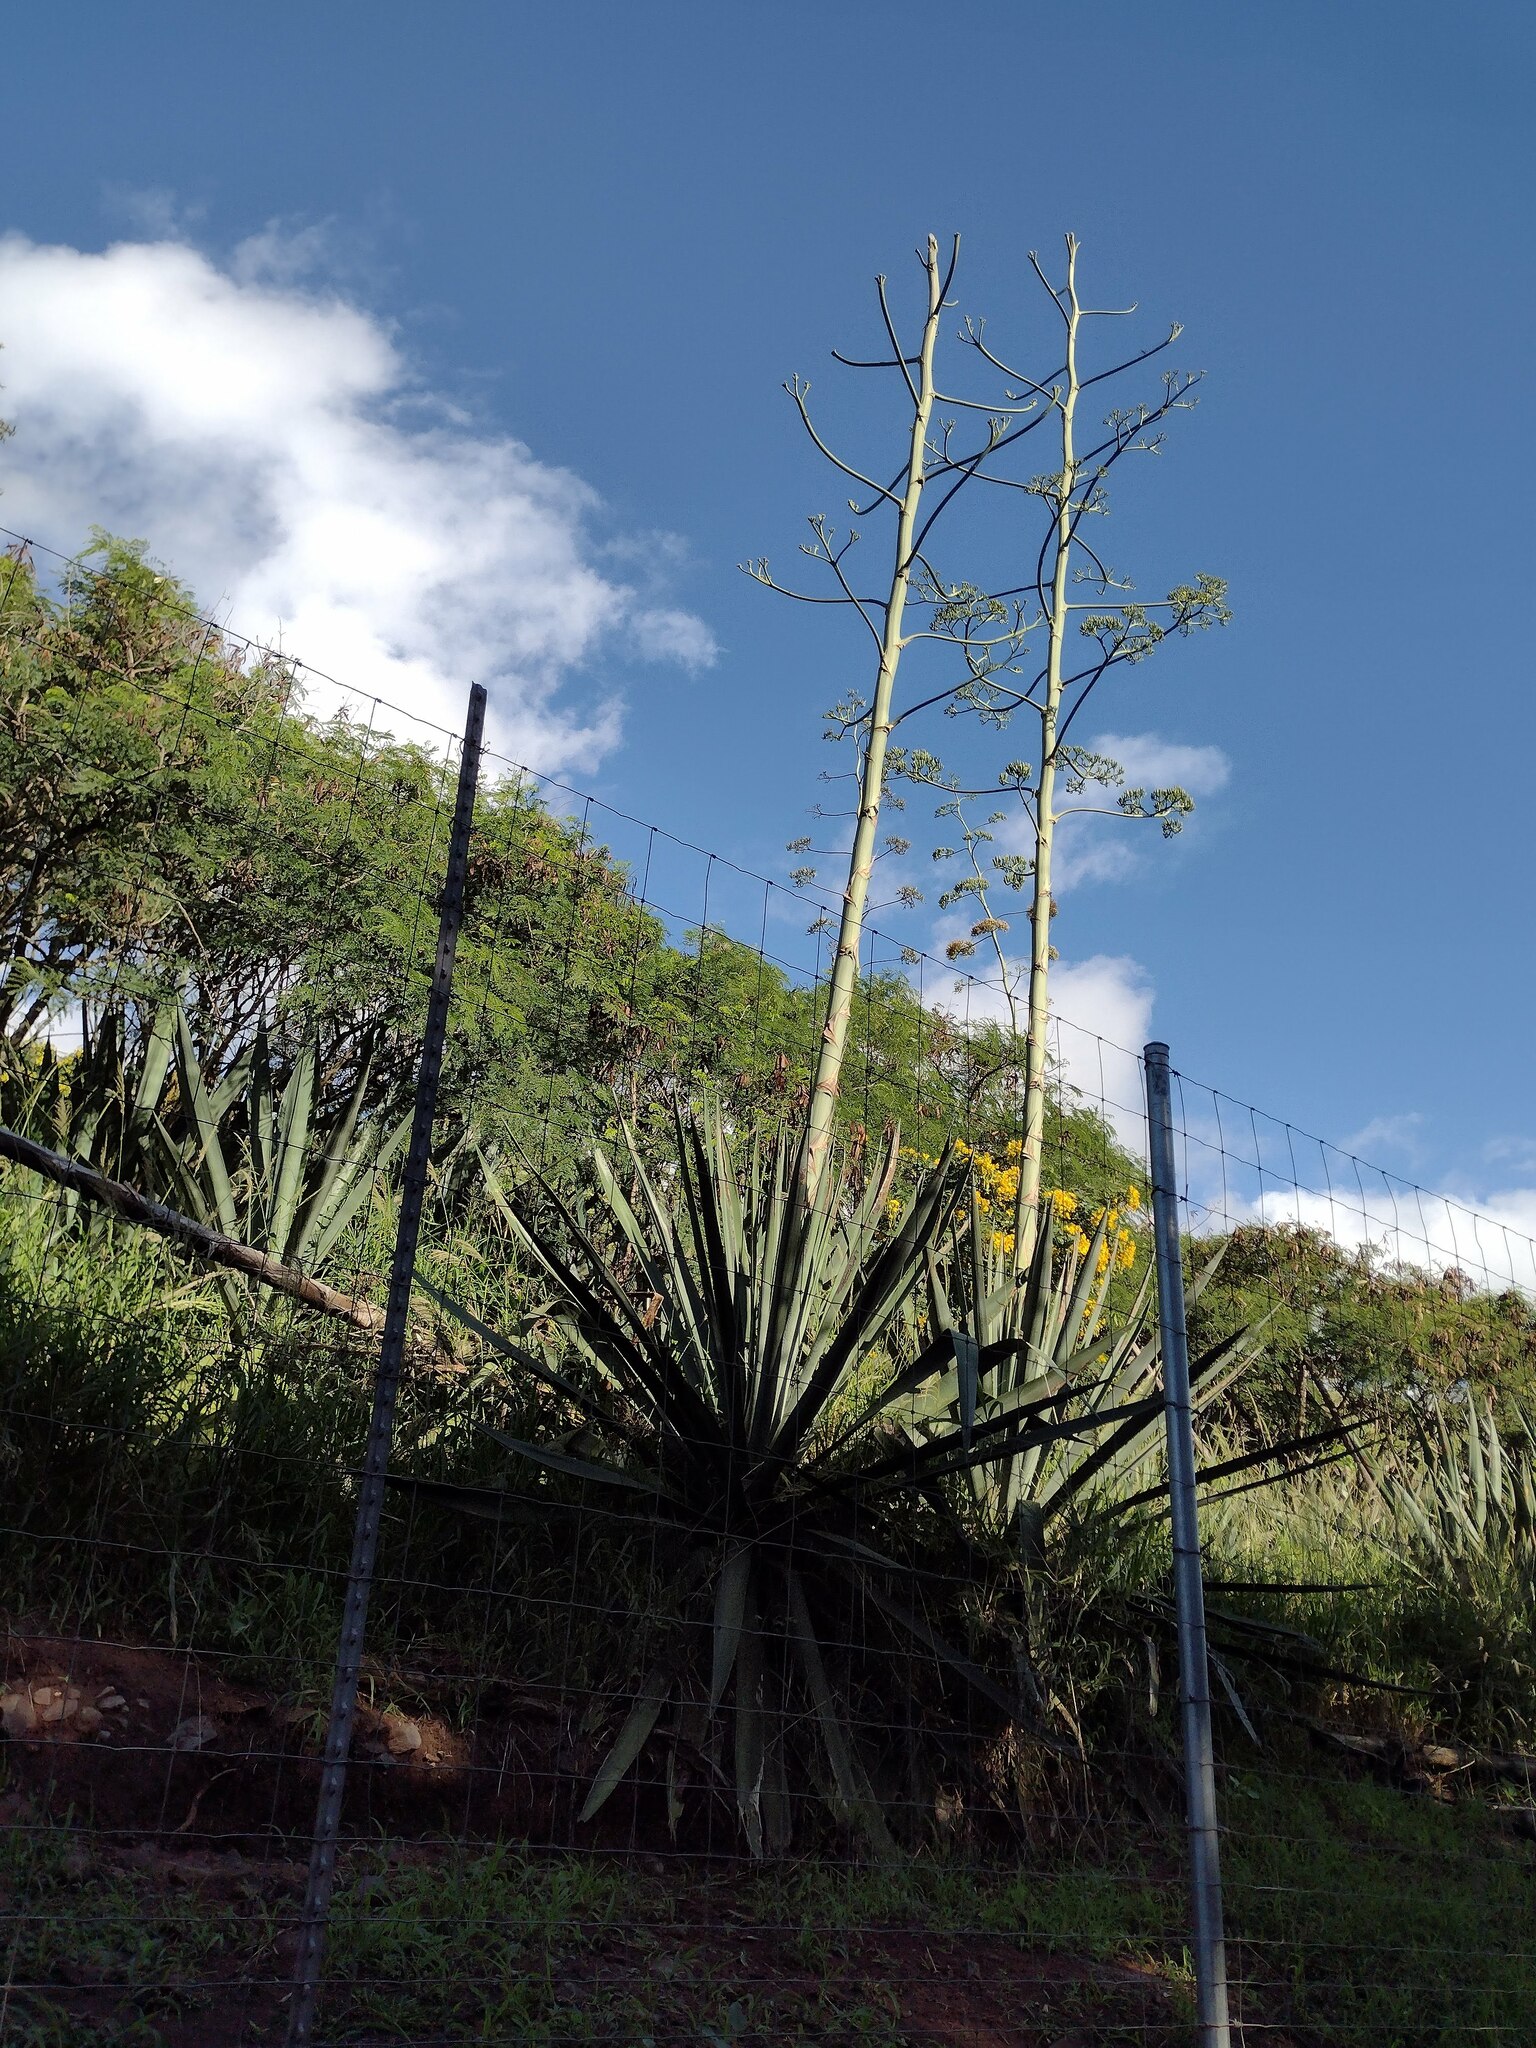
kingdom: Plantae
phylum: Tracheophyta
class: Liliopsida
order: Asparagales
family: Asparagaceae
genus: Agave
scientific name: Agave sisalana
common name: Sisal hemp
